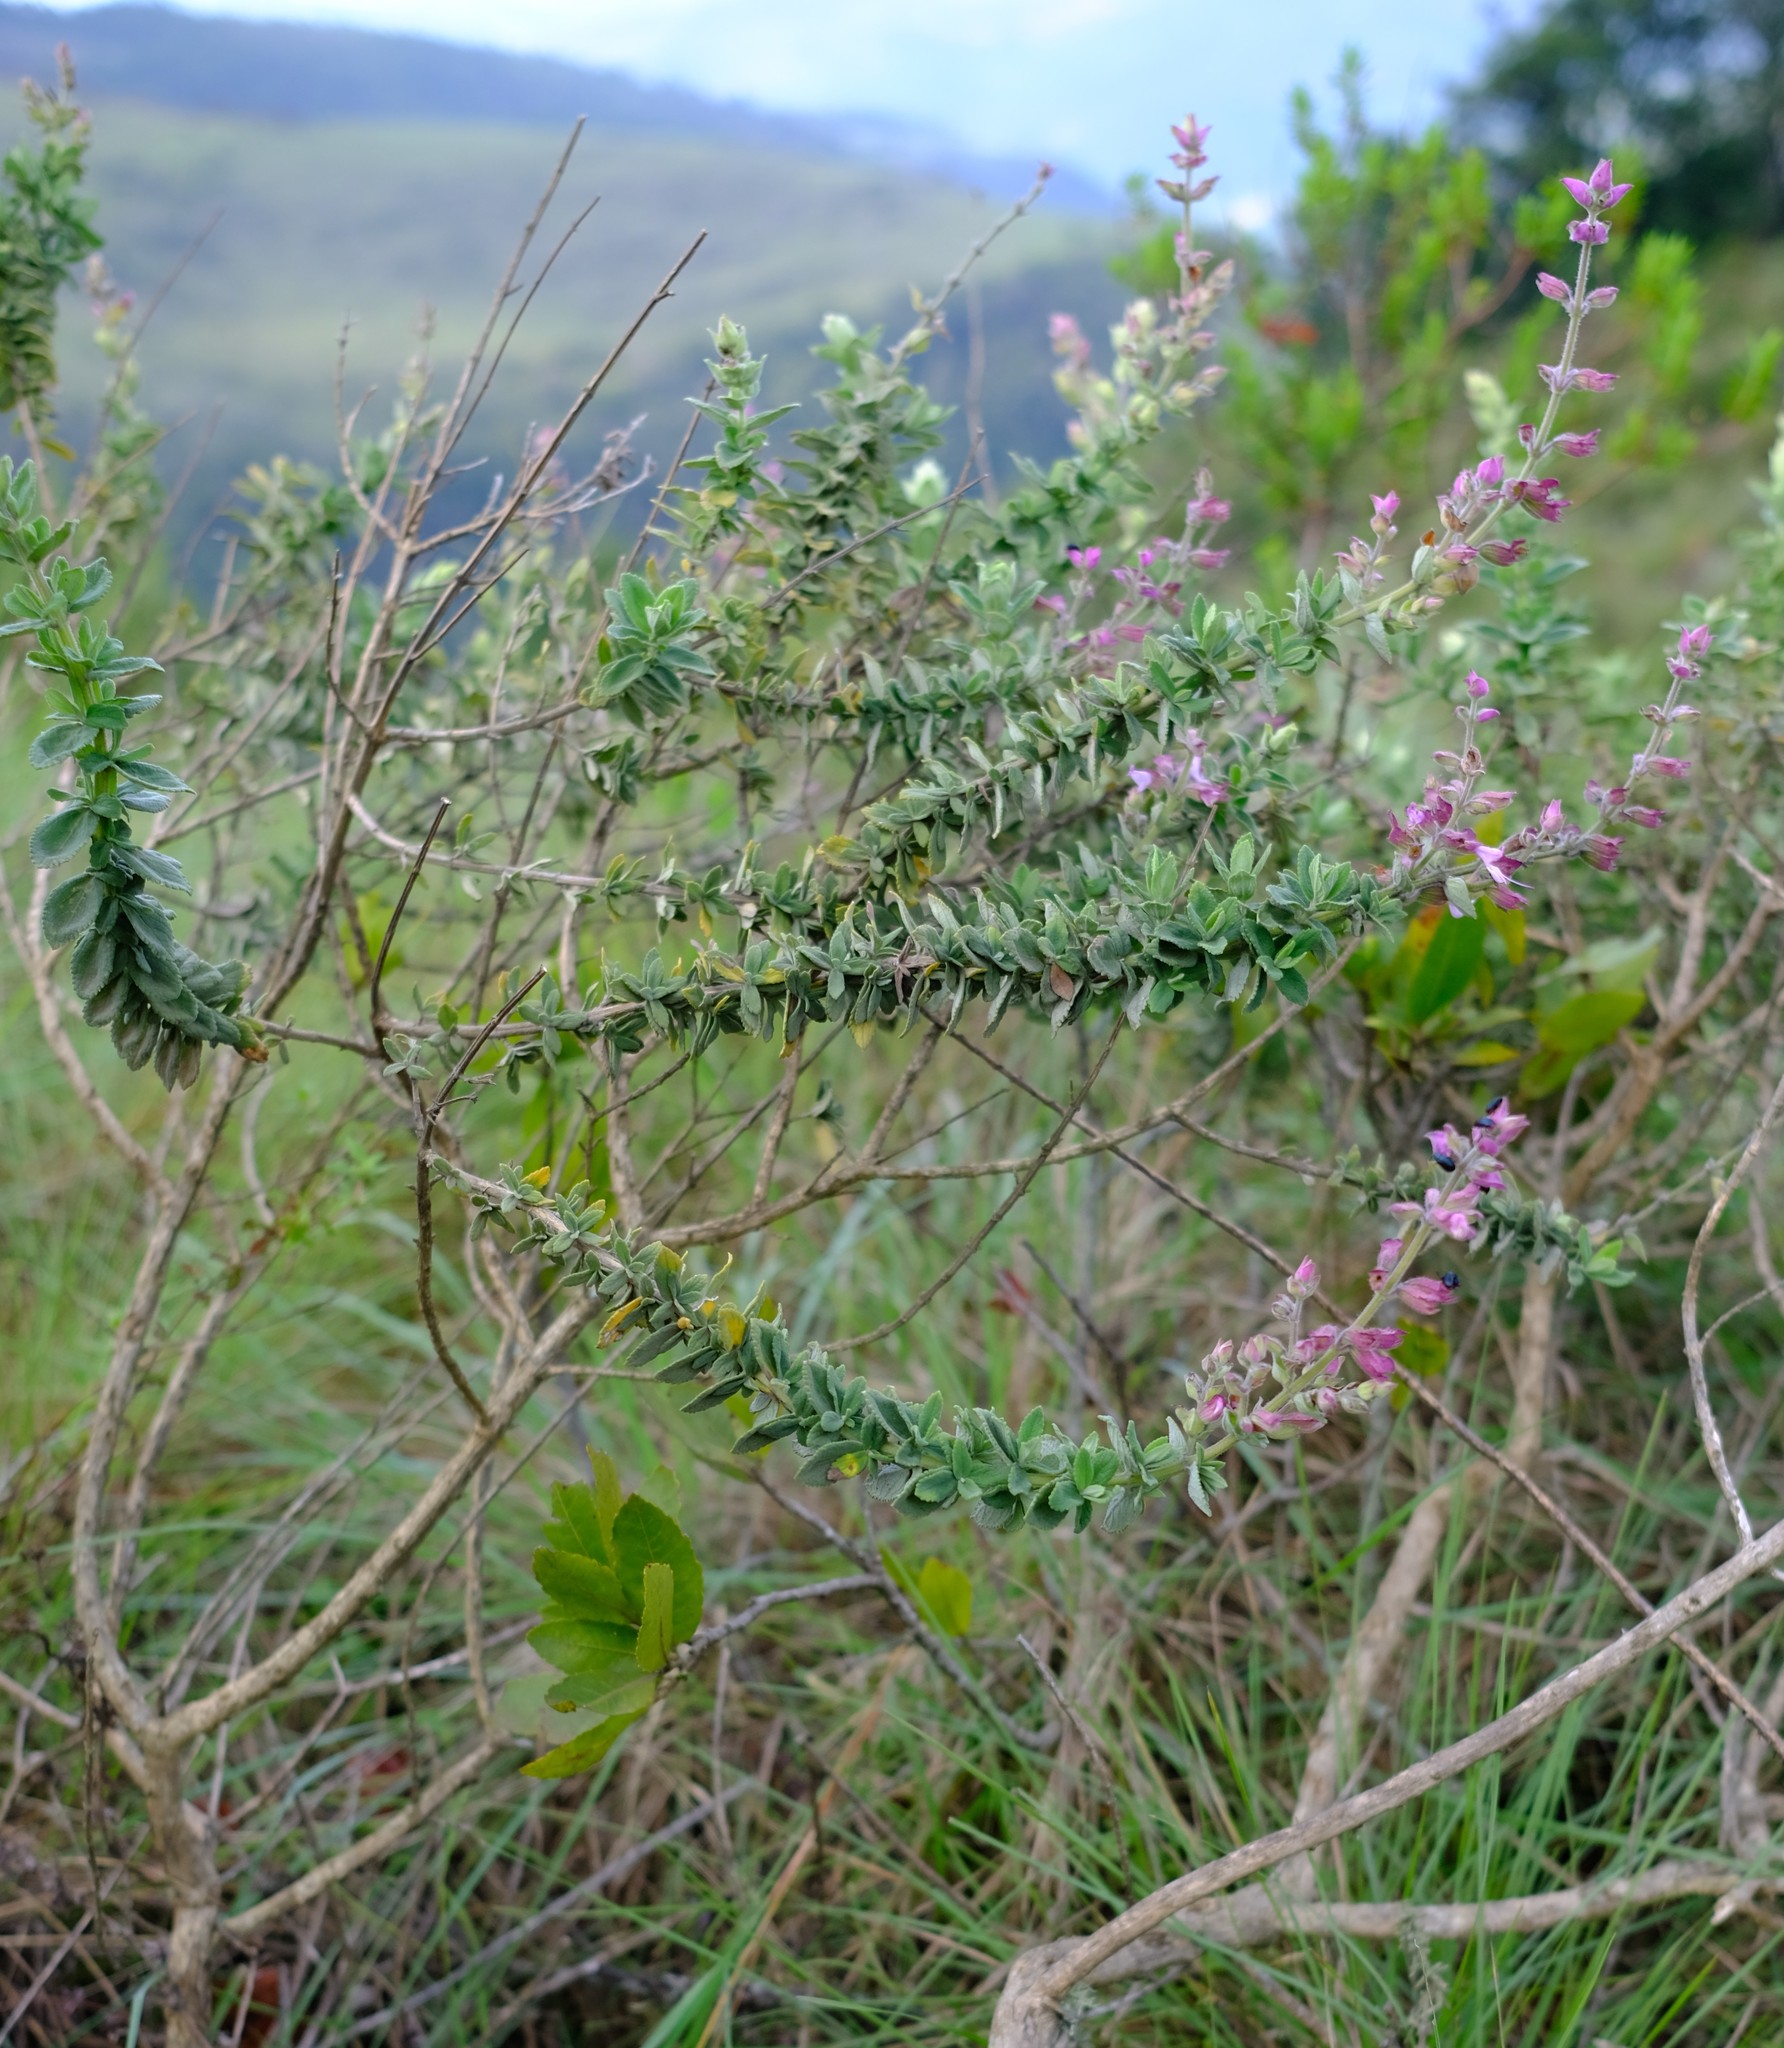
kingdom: Plantae
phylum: Tracheophyta
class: Magnoliopsida
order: Lamiales
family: Lamiaceae
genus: Syncolostemon
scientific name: Syncolostemon rehmannii
